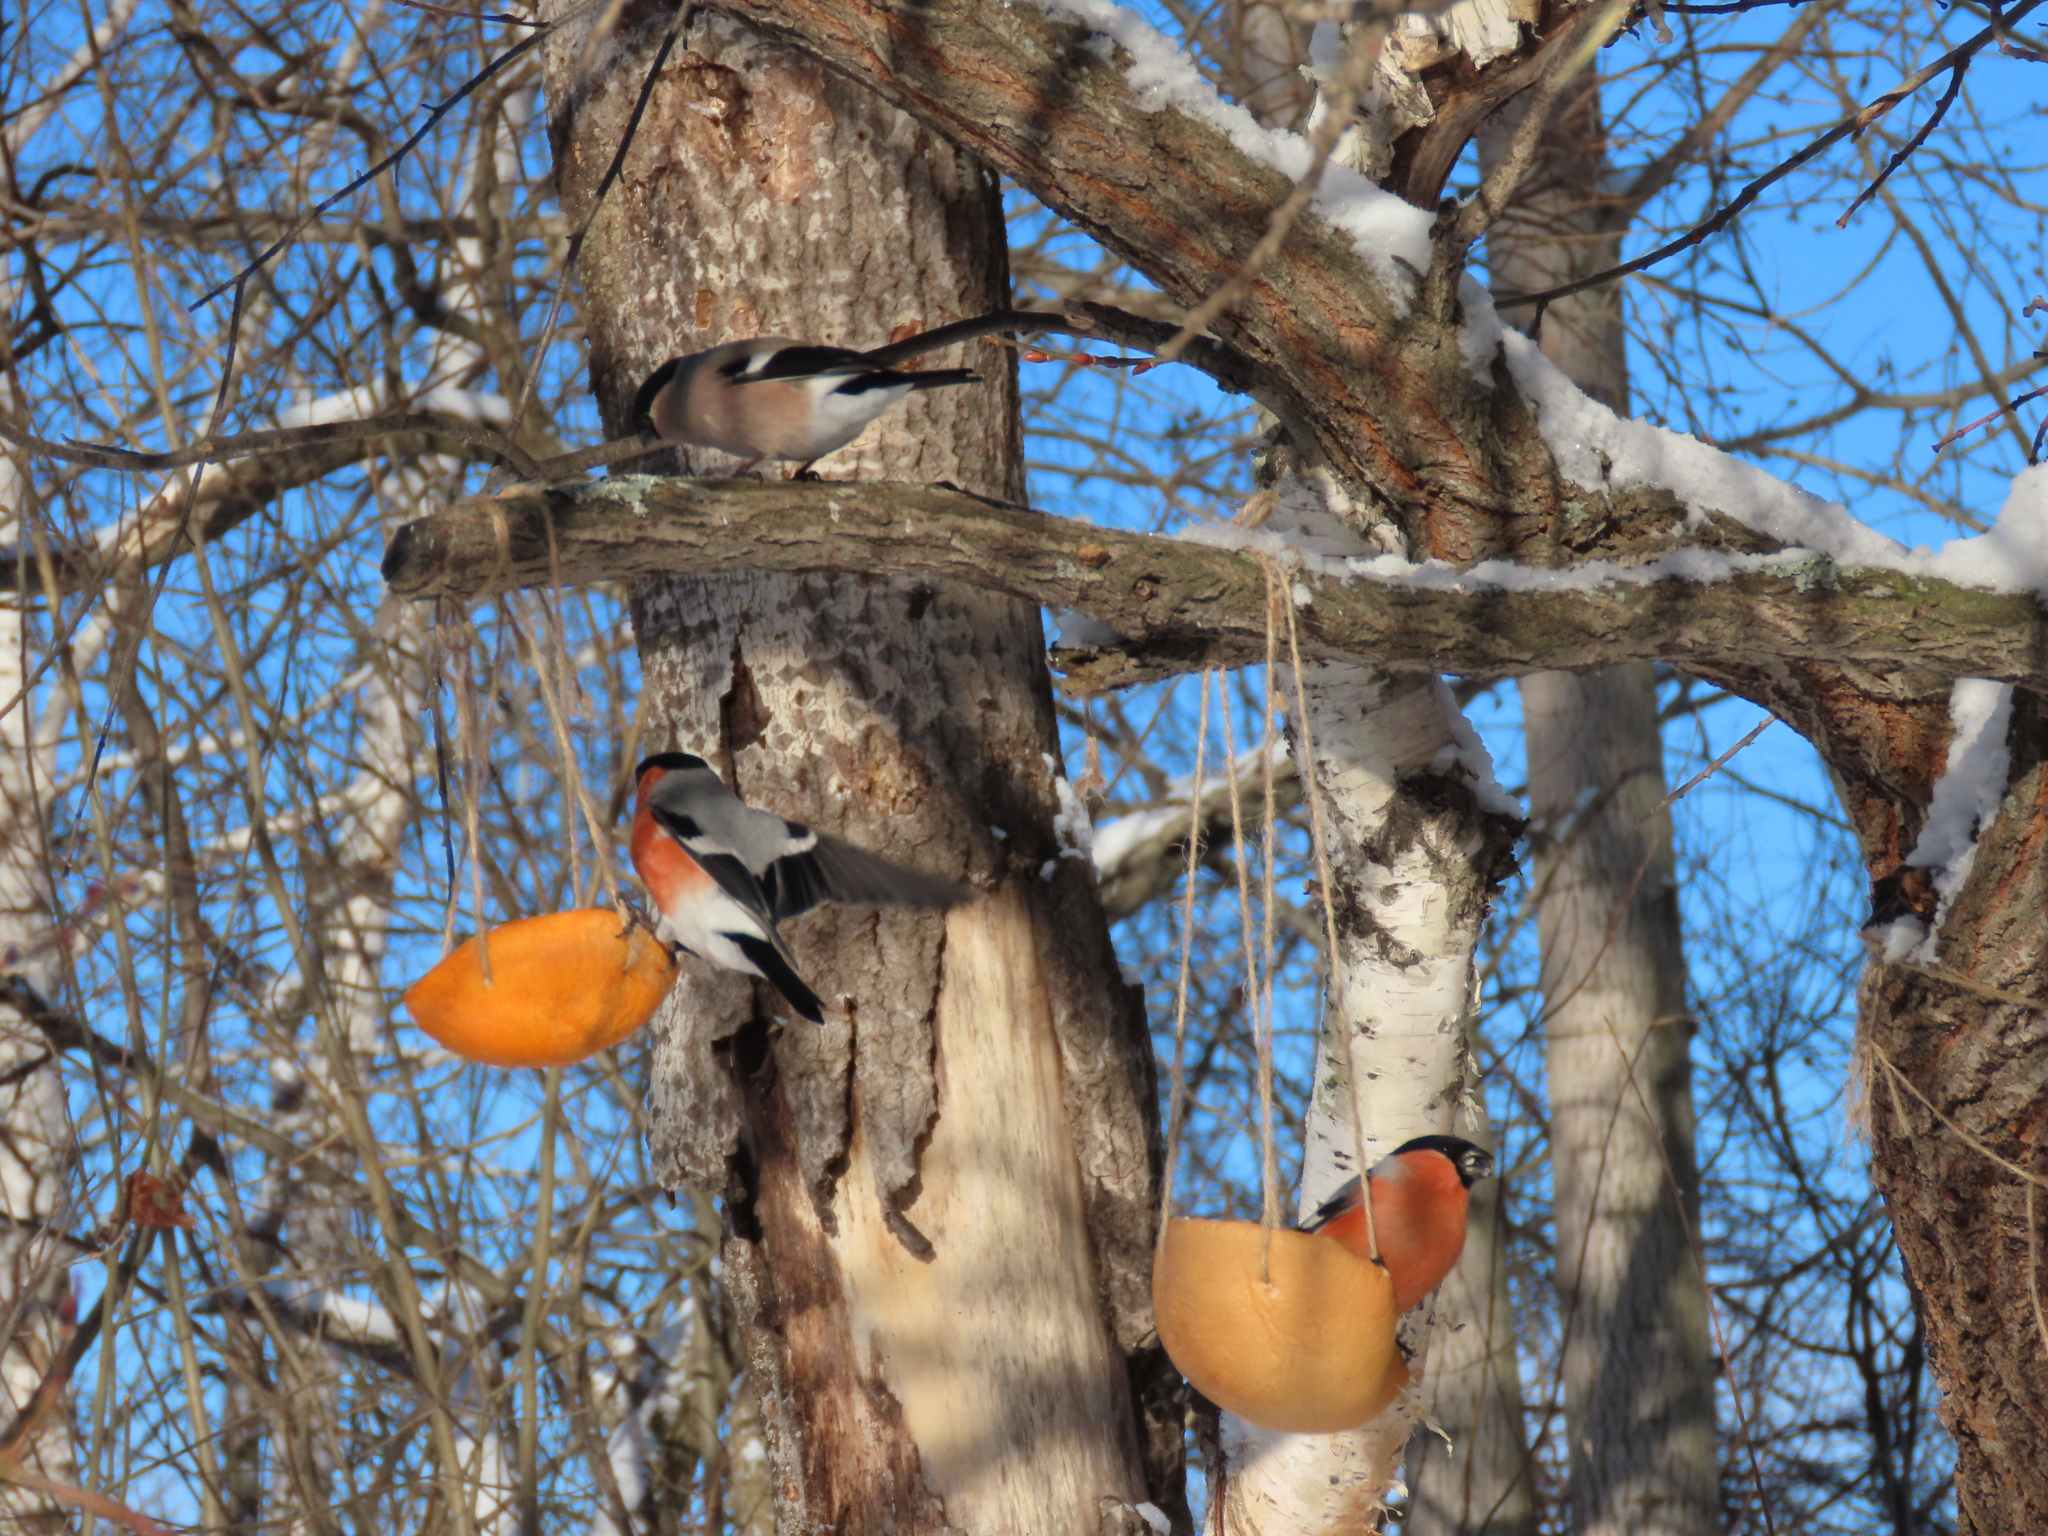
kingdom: Animalia
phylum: Chordata
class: Aves
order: Passeriformes
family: Fringillidae
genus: Pyrrhula
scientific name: Pyrrhula pyrrhula
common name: Eurasian bullfinch
